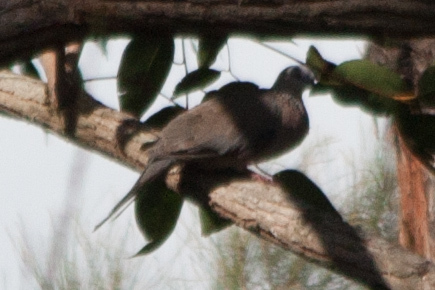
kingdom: Animalia
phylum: Chordata
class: Aves
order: Columbiformes
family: Columbidae
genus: Spilopelia
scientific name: Spilopelia chinensis
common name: Spotted dove
